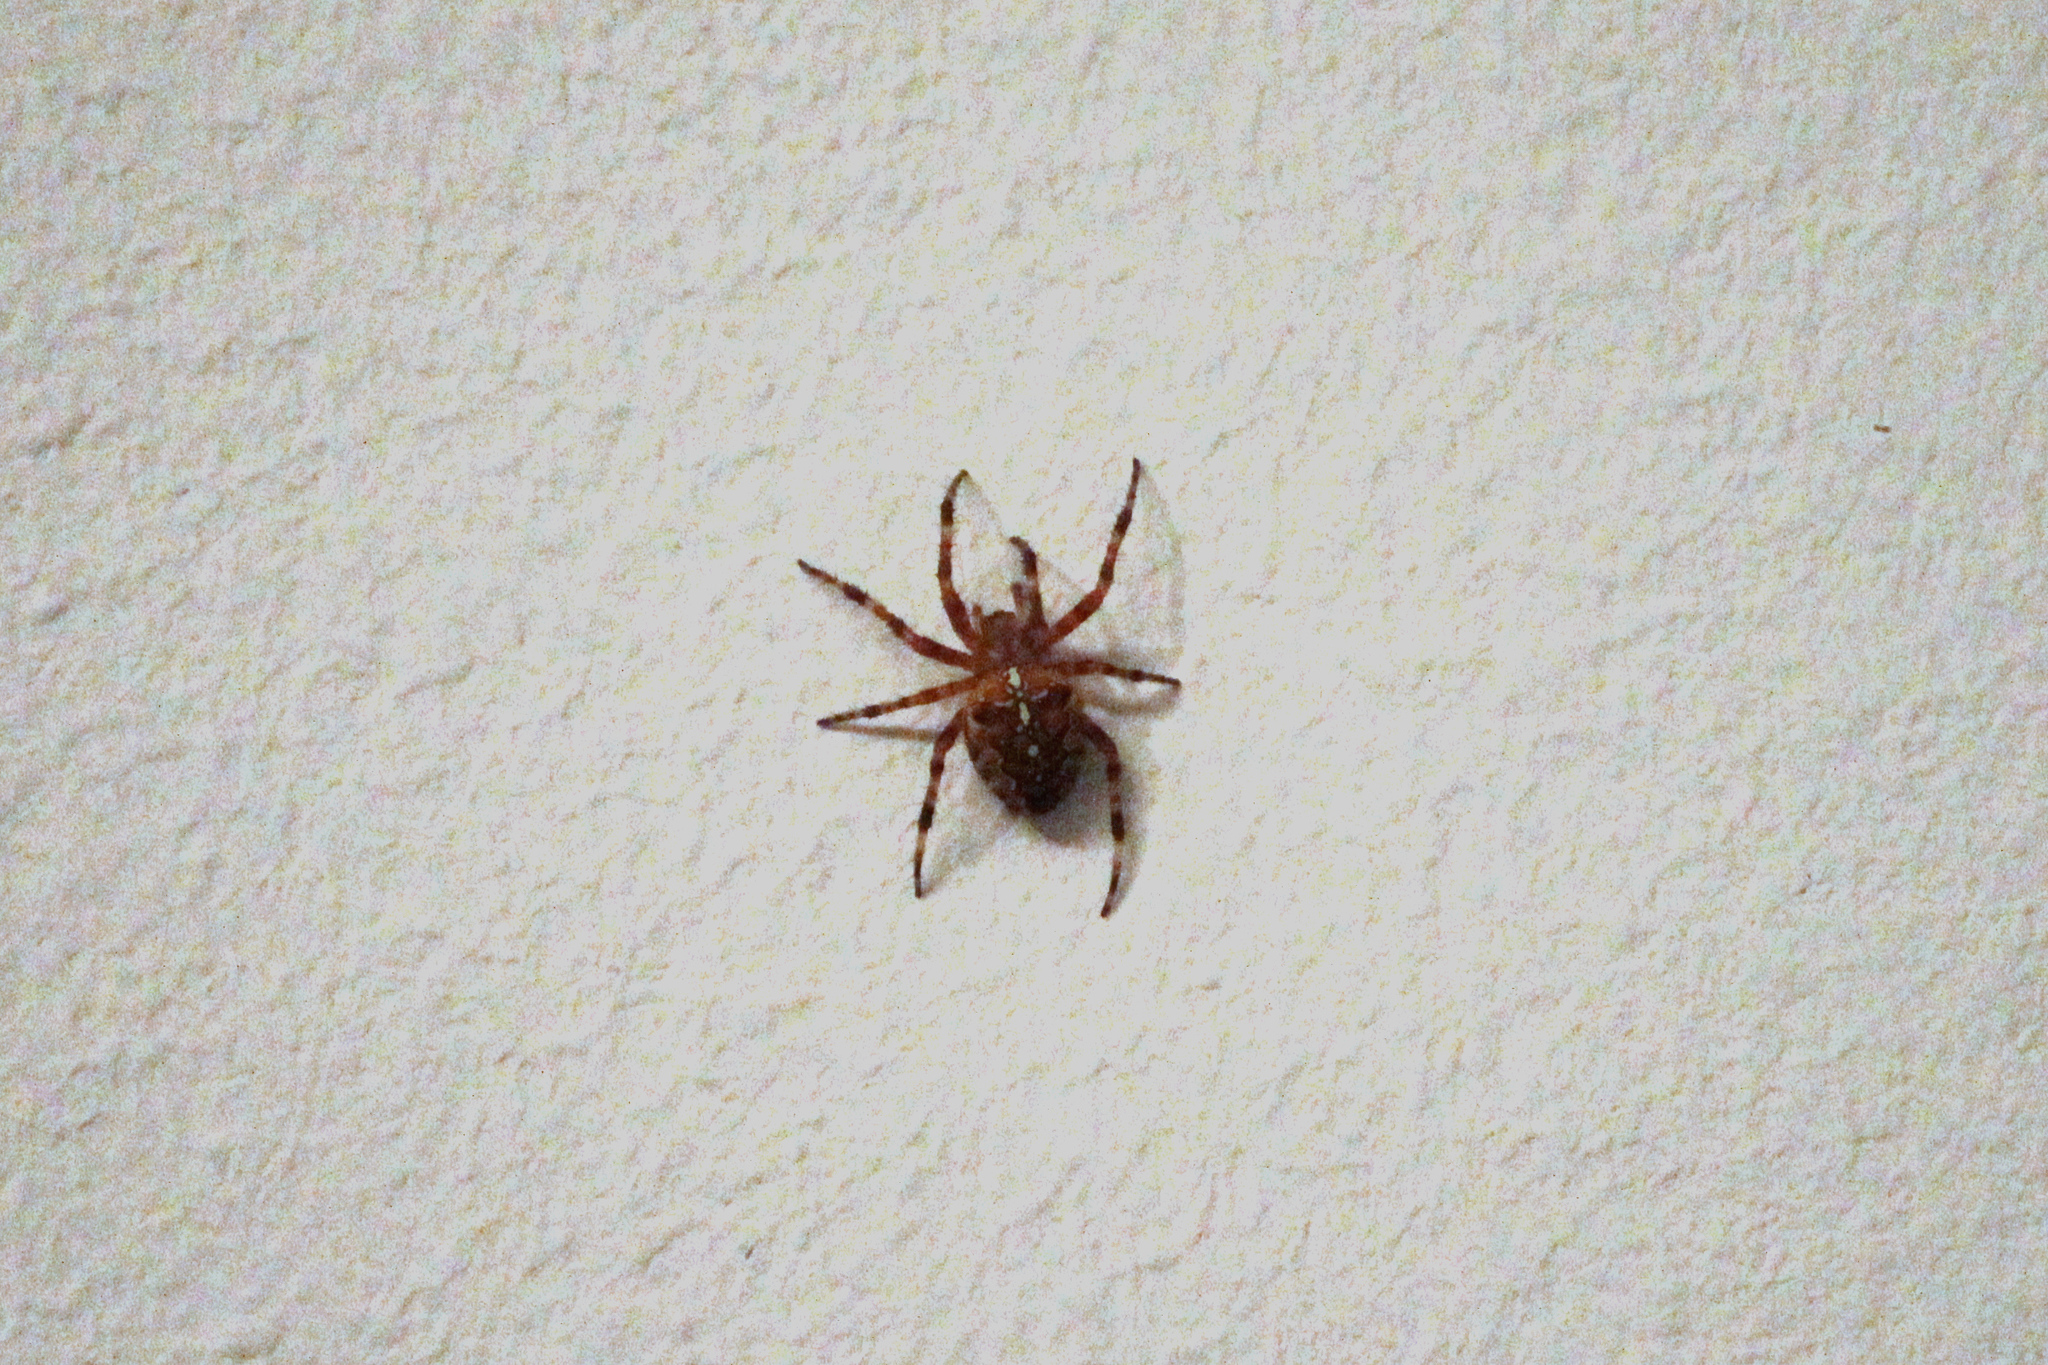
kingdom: Animalia
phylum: Arthropoda
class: Arachnida
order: Araneae
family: Araneidae
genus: Araneus
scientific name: Araneus diadematus
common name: Cross orbweaver
